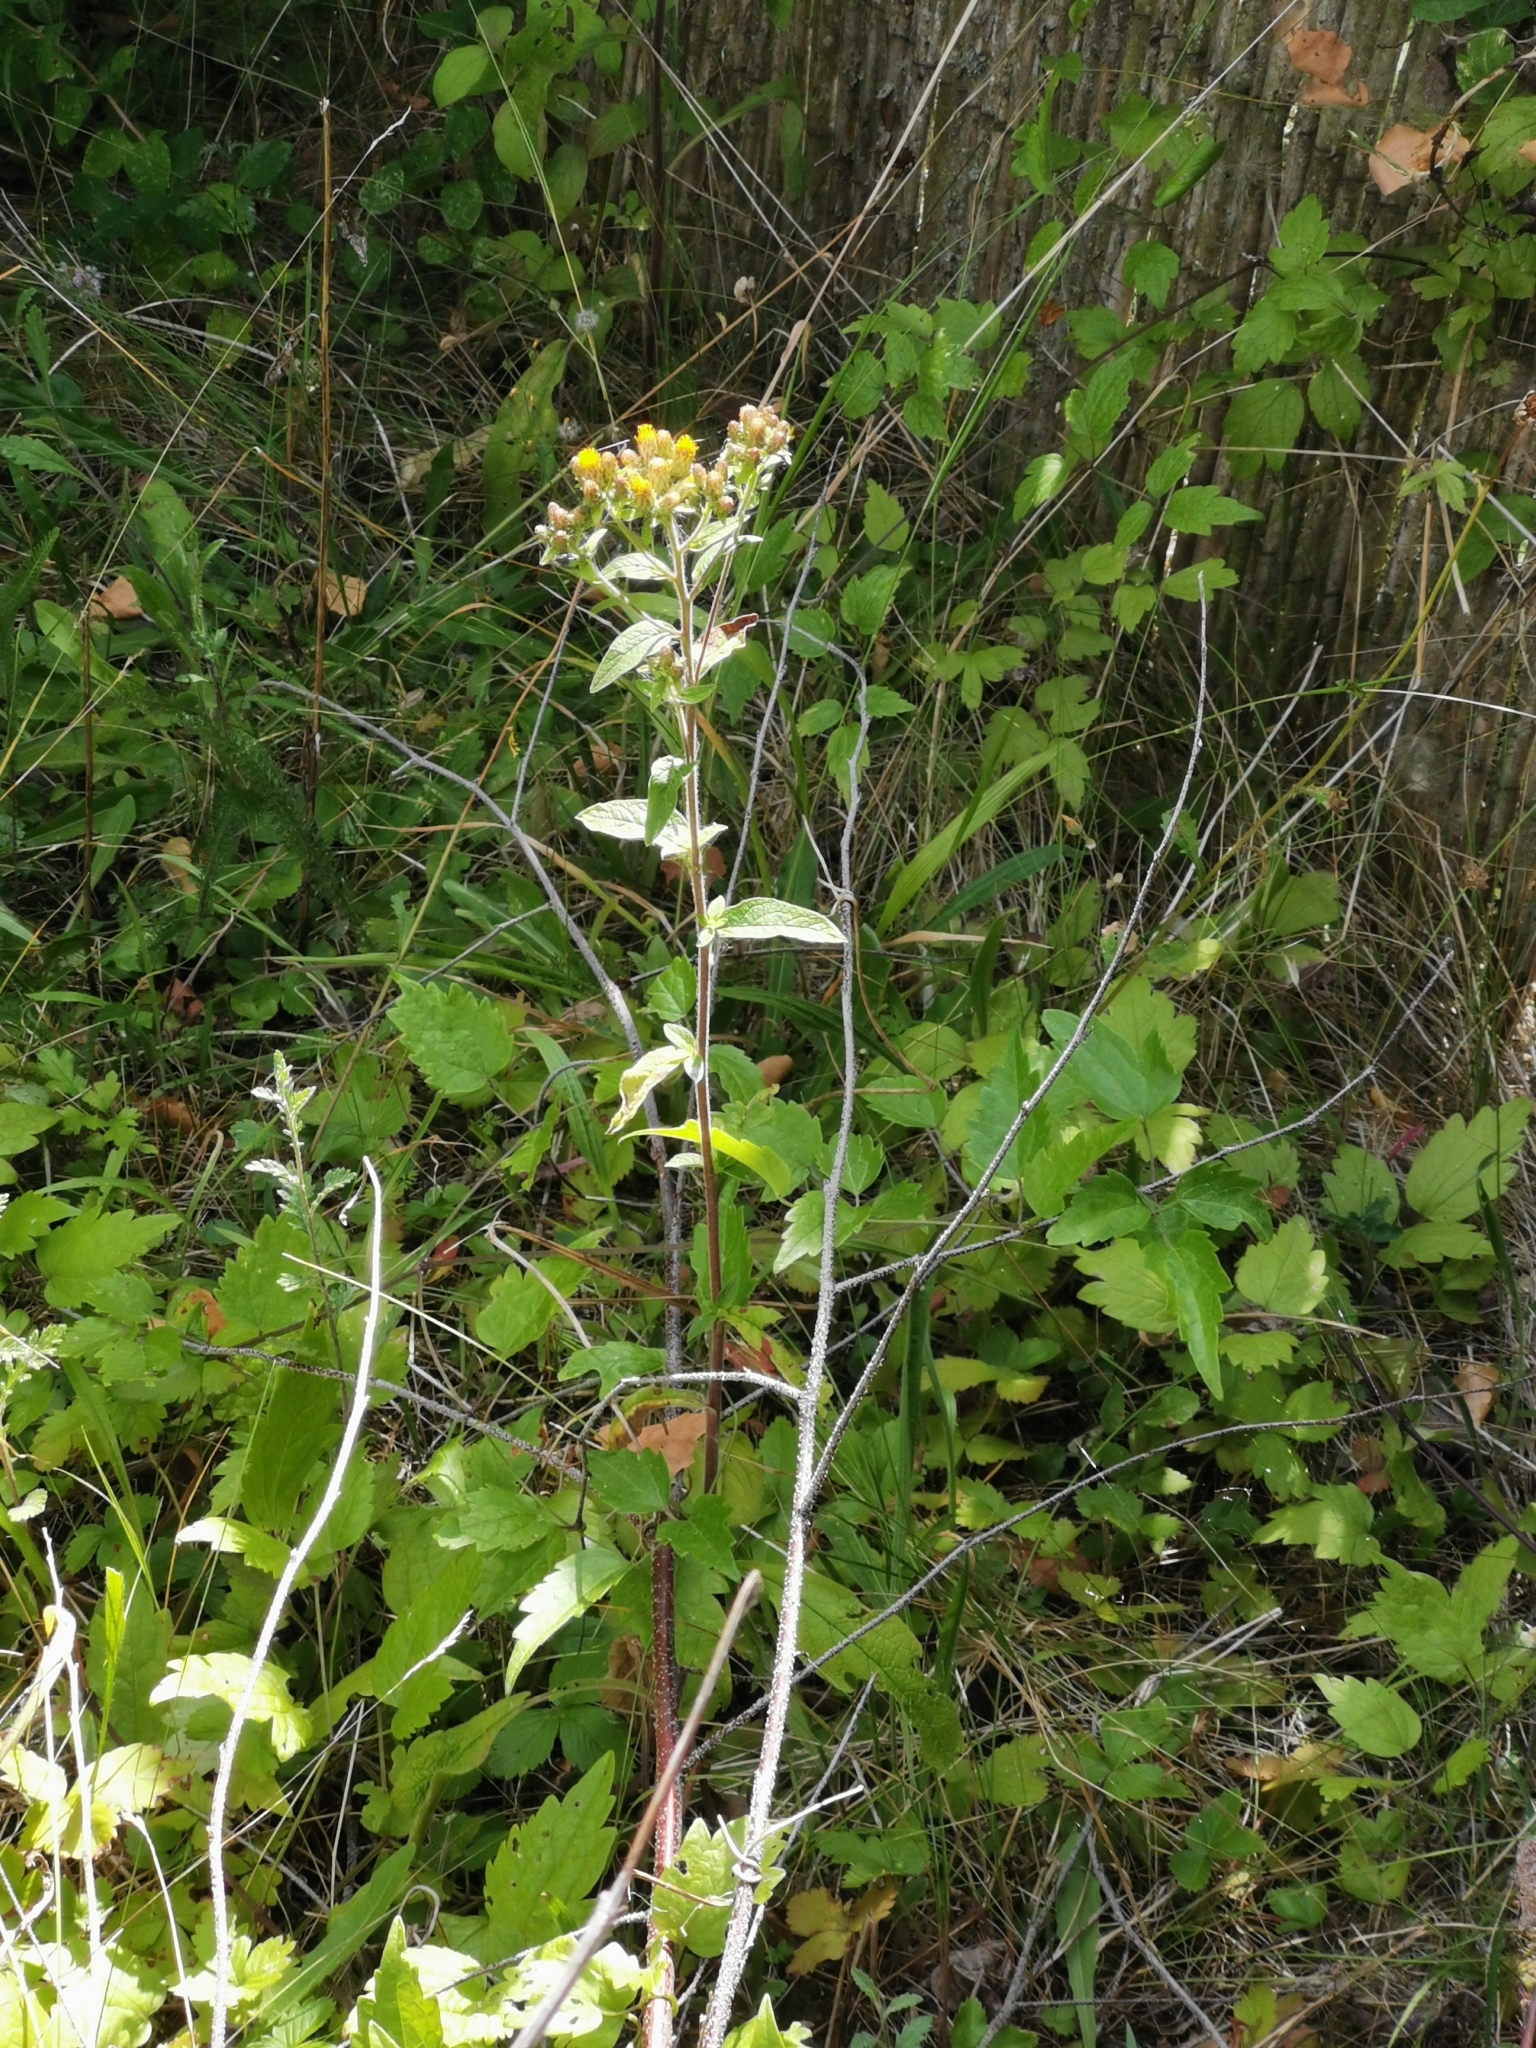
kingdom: Plantae
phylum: Tracheophyta
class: Magnoliopsida
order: Asterales
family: Asteraceae
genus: Pentanema
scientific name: Pentanema squarrosum
